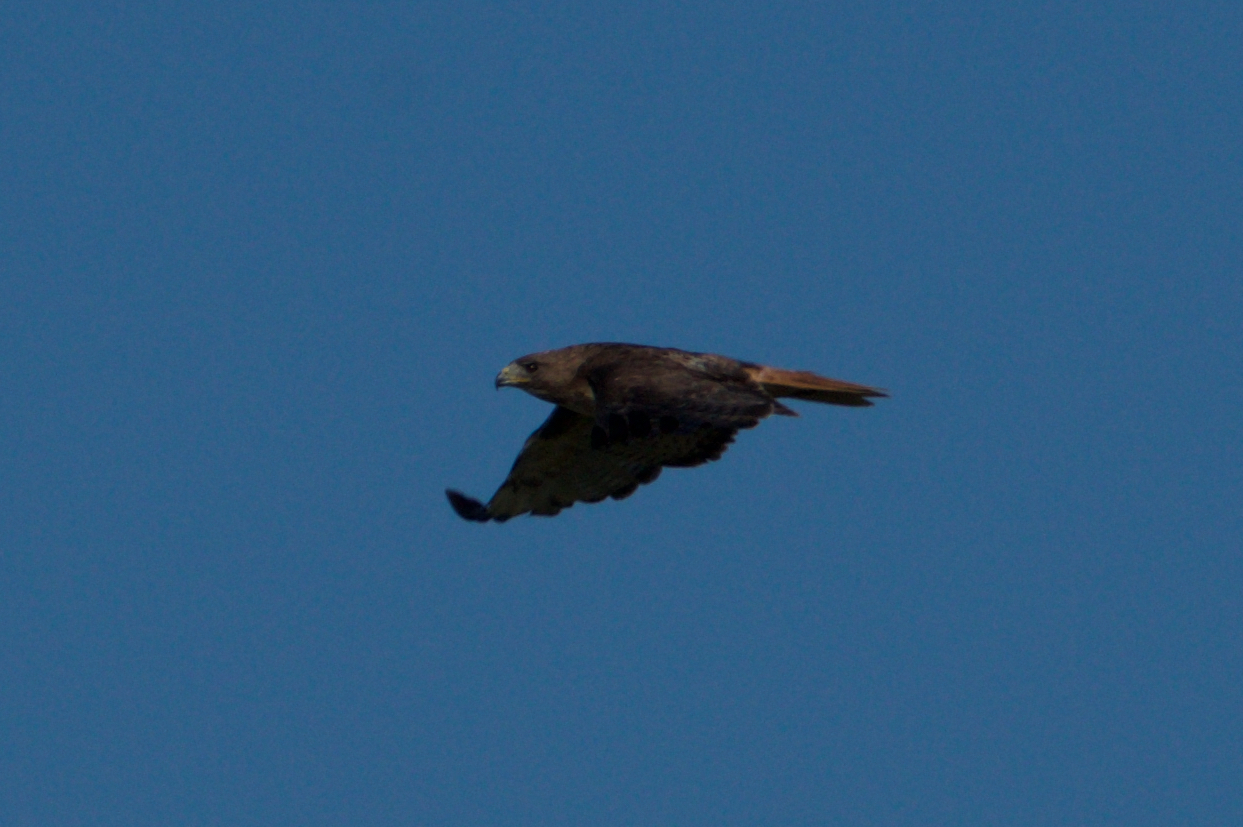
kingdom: Animalia
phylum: Chordata
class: Aves
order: Accipitriformes
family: Accipitridae
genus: Buteo
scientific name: Buteo jamaicensis
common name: Red-tailed hawk
